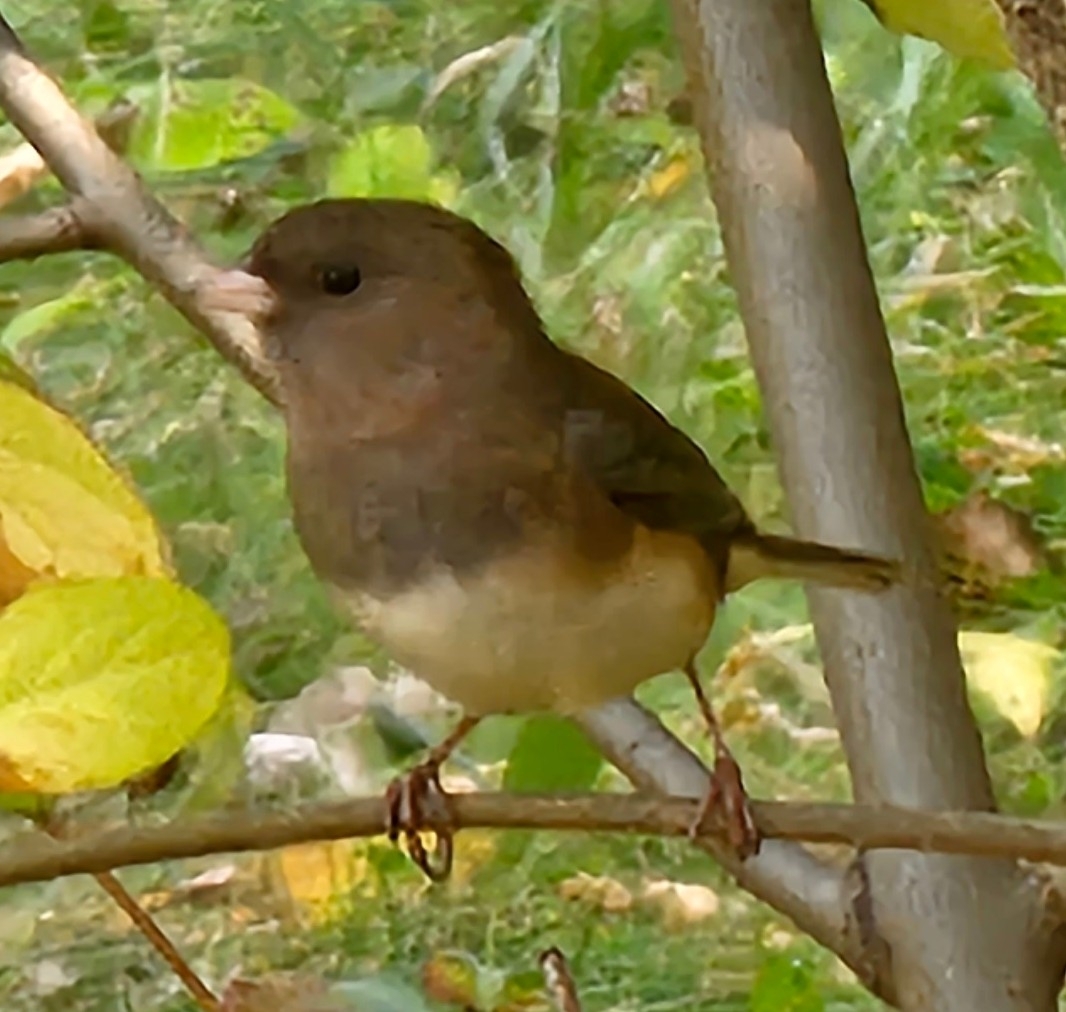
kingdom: Animalia
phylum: Chordata
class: Aves
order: Passeriformes
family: Passerellidae
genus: Junco
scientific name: Junco hyemalis
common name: Dark-eyed junco
